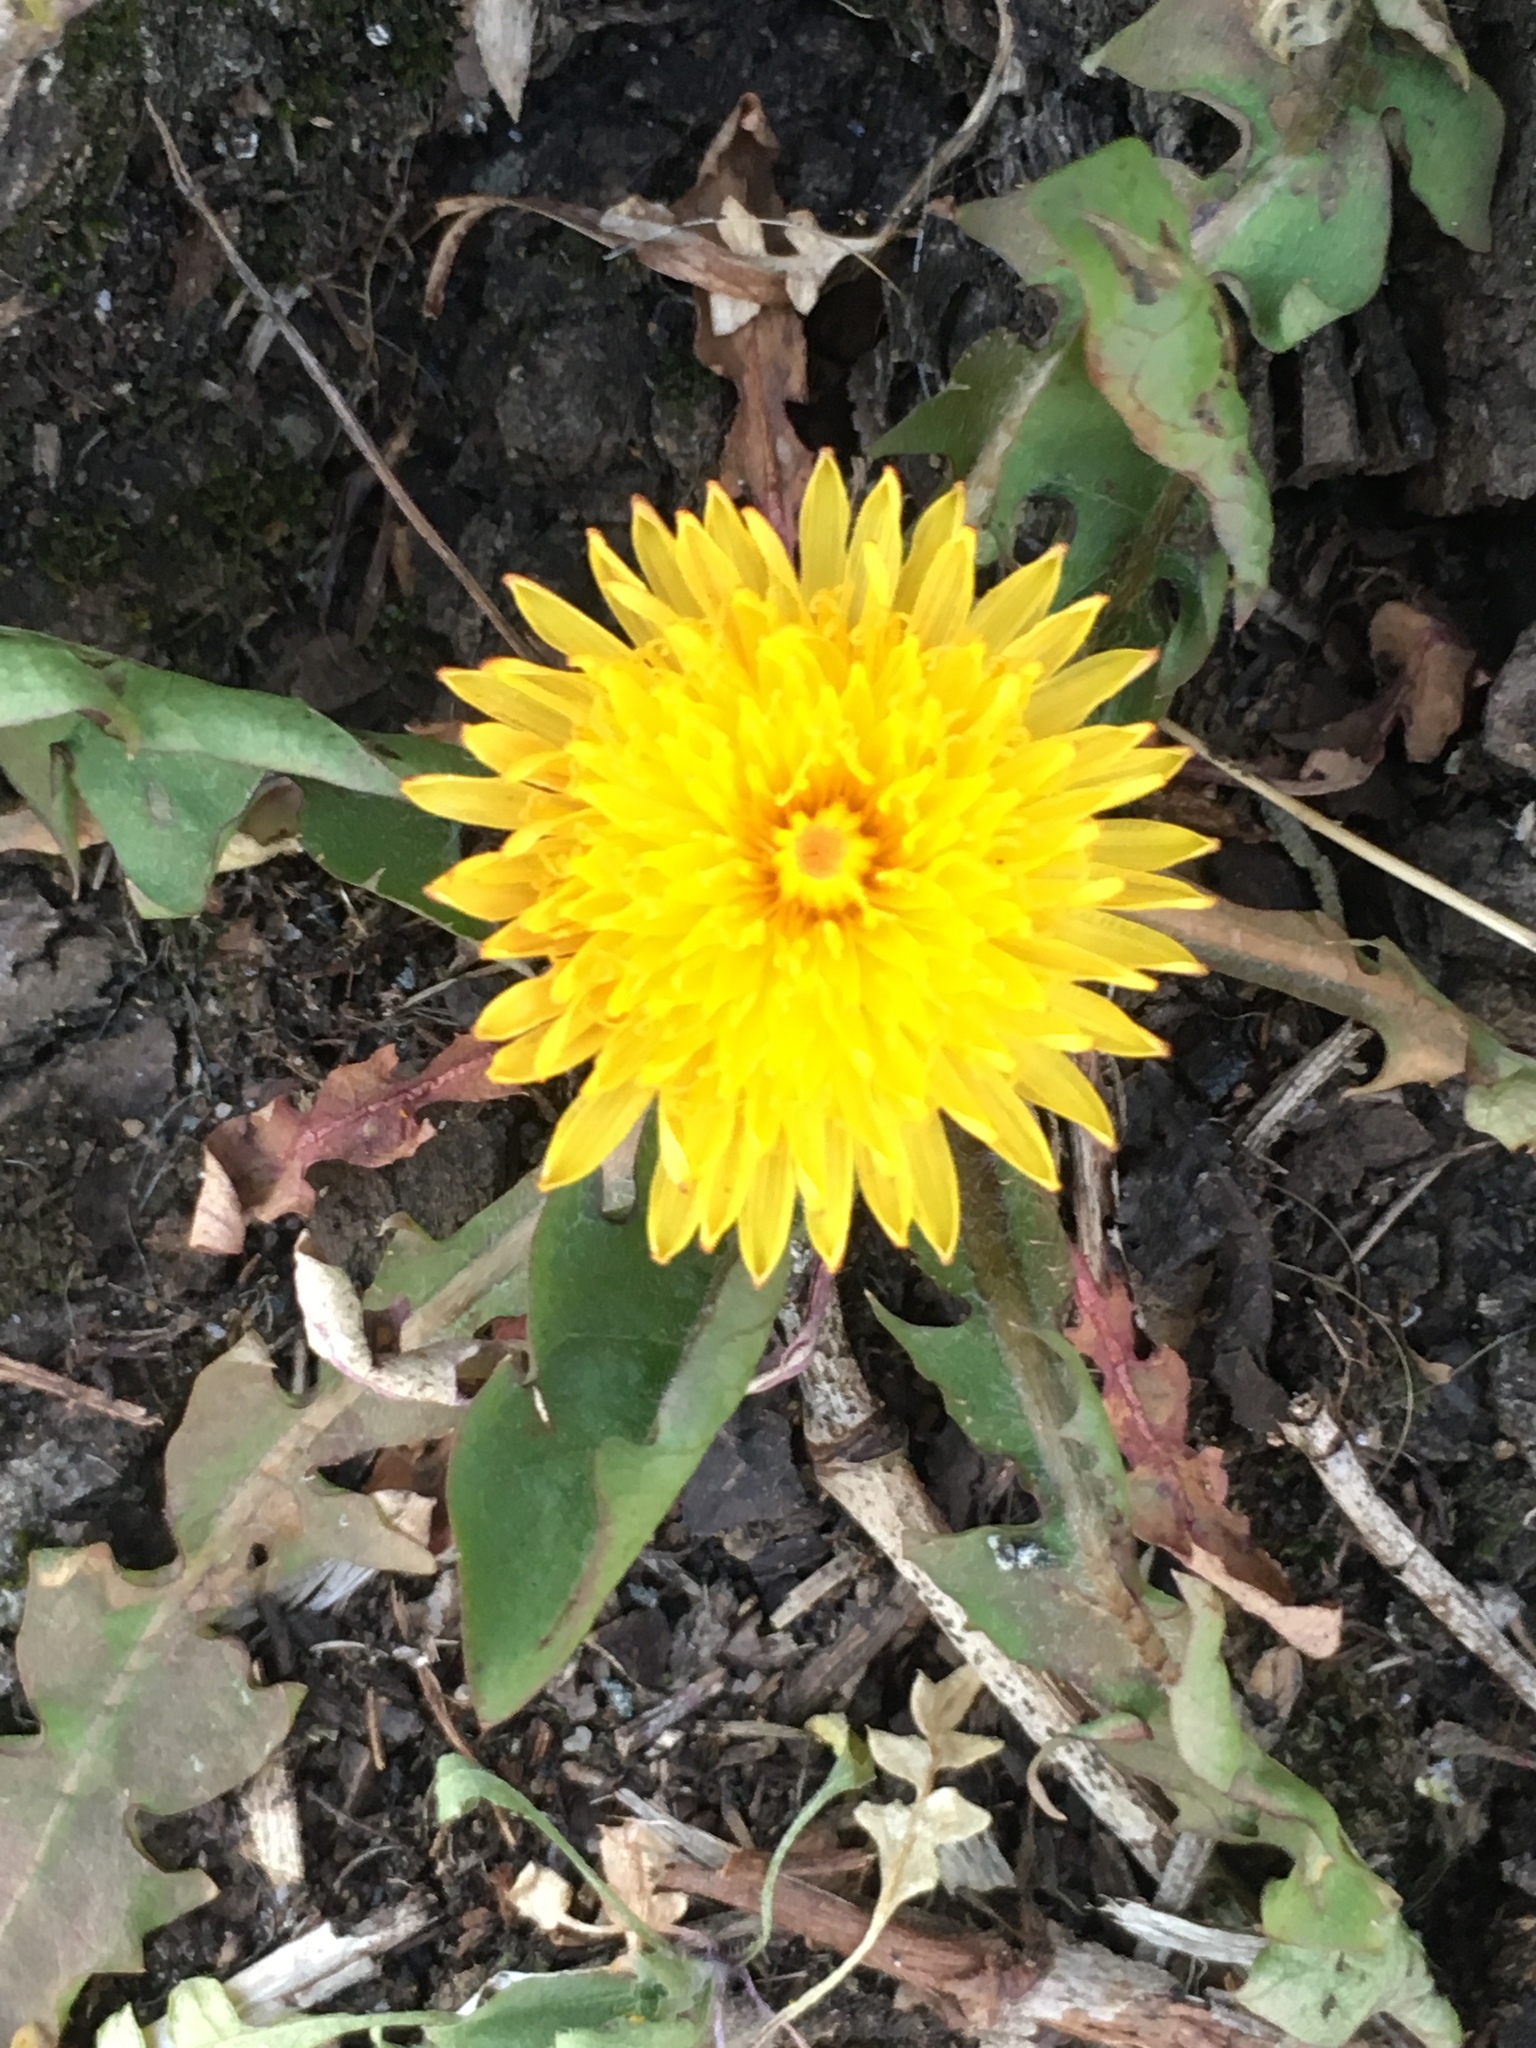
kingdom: Plantae
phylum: Tracheophyta
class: Magnoliopsida
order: Asterales
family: Asteraceae
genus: Taraxacum
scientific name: Taraxacum officinale
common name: Common dandelion
